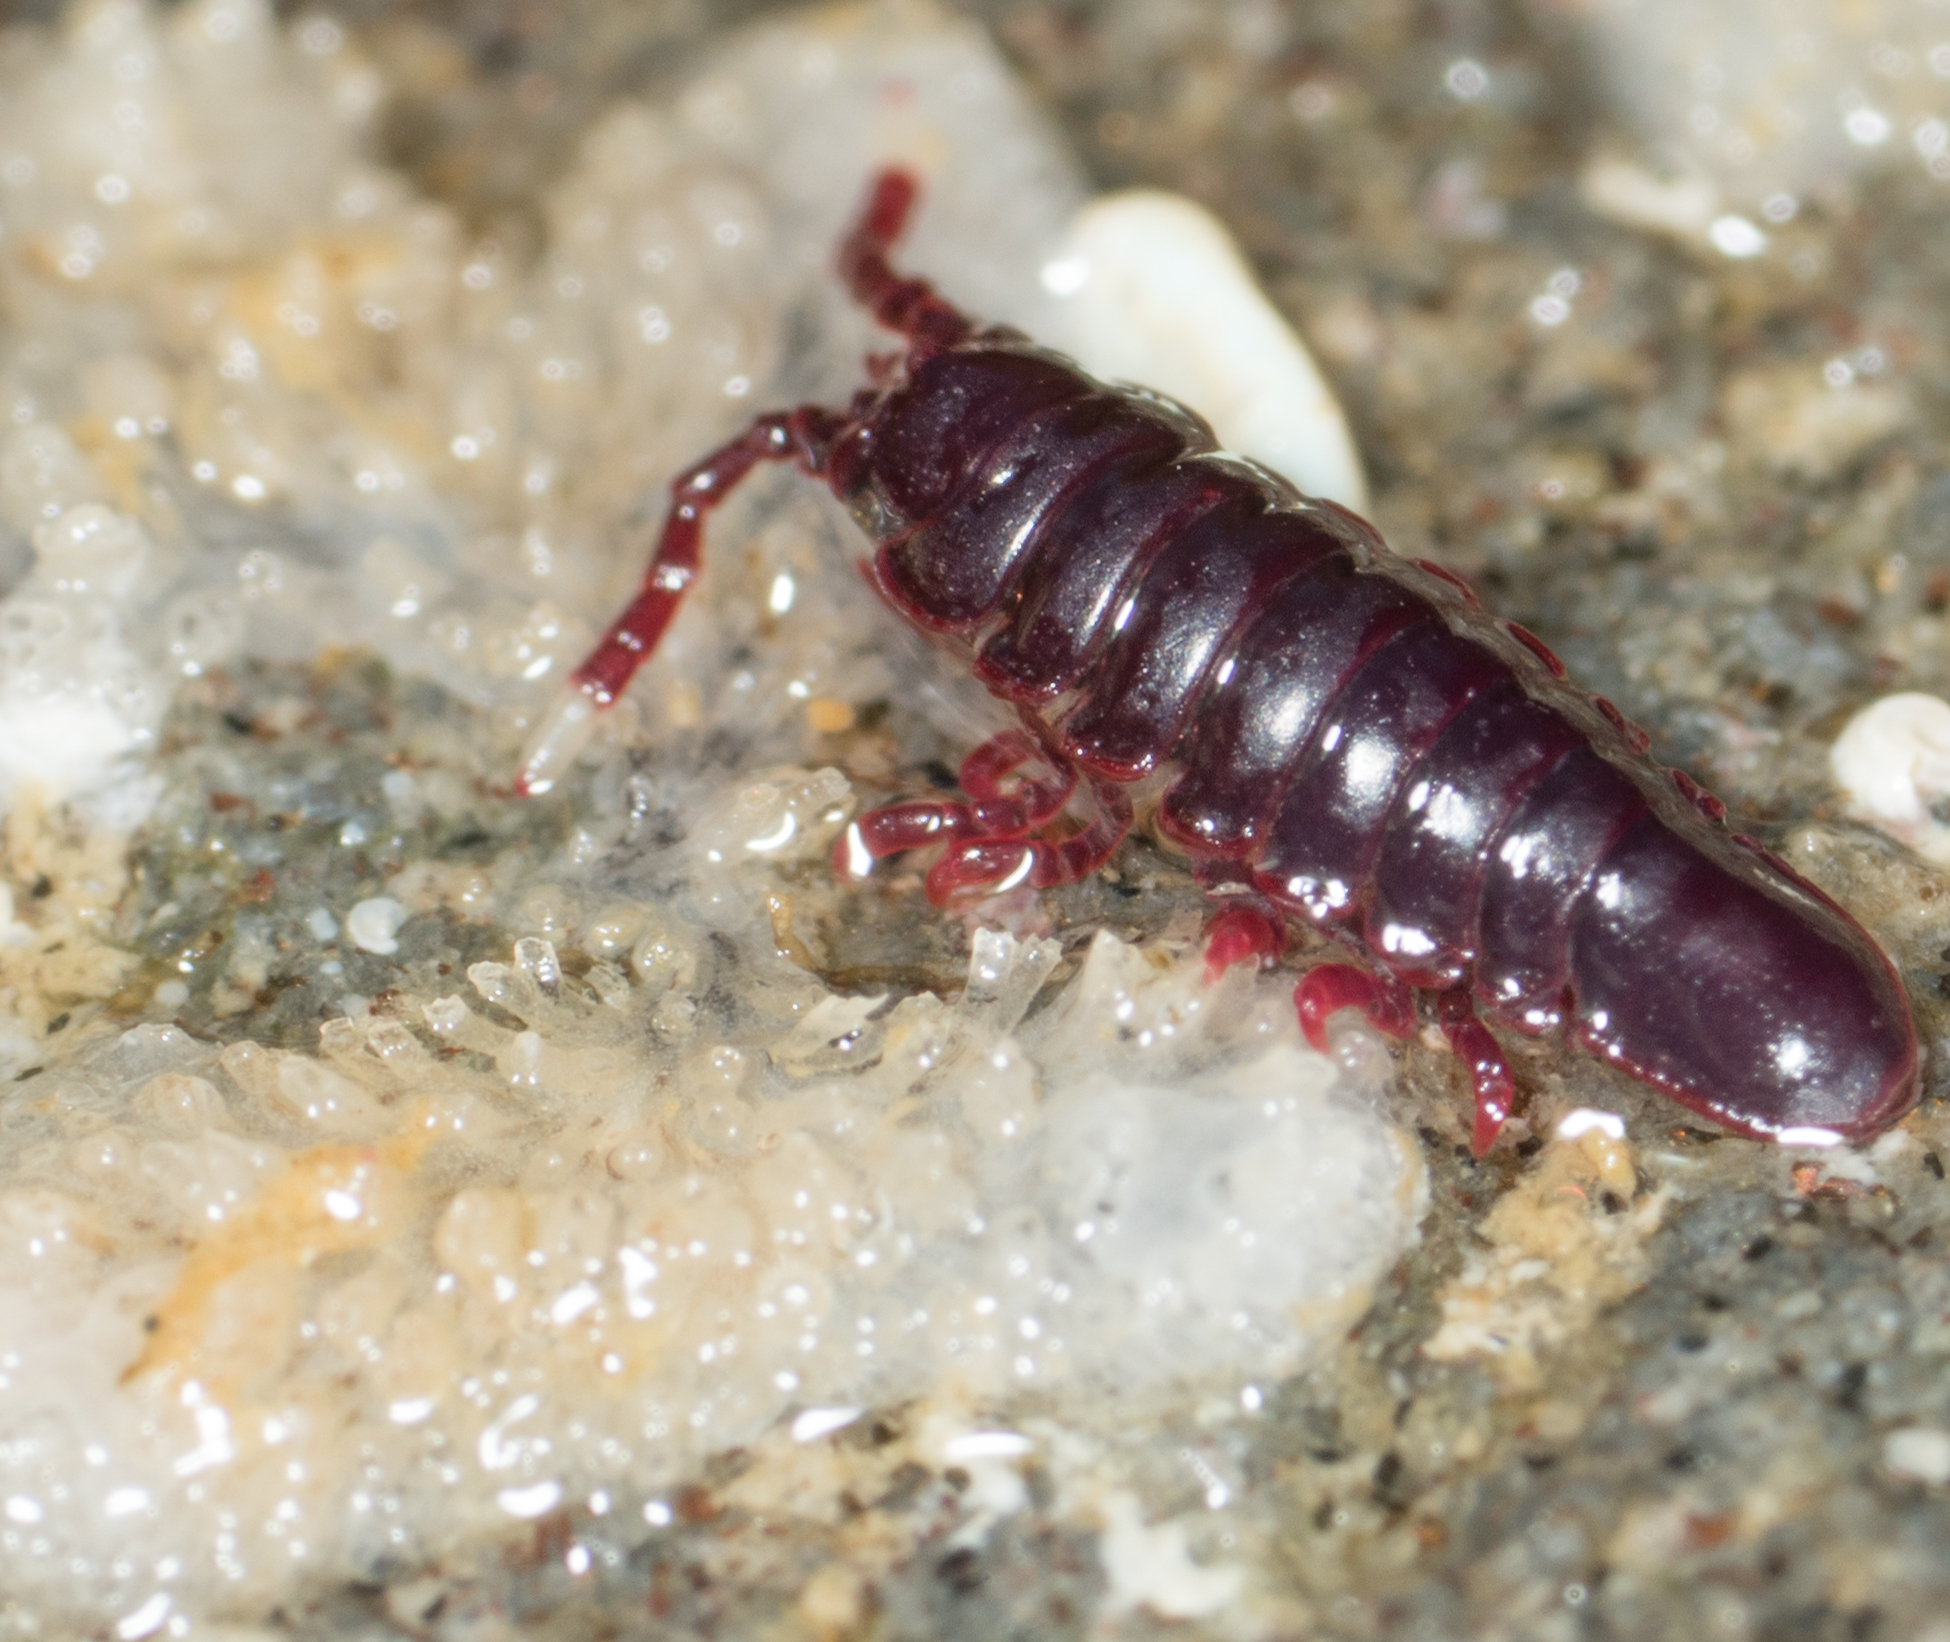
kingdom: Animalia
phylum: Arthropoda
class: Malacostraca
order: Isopoda
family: Idoteidae
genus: Colidotea
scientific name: Colidotea rostrata
